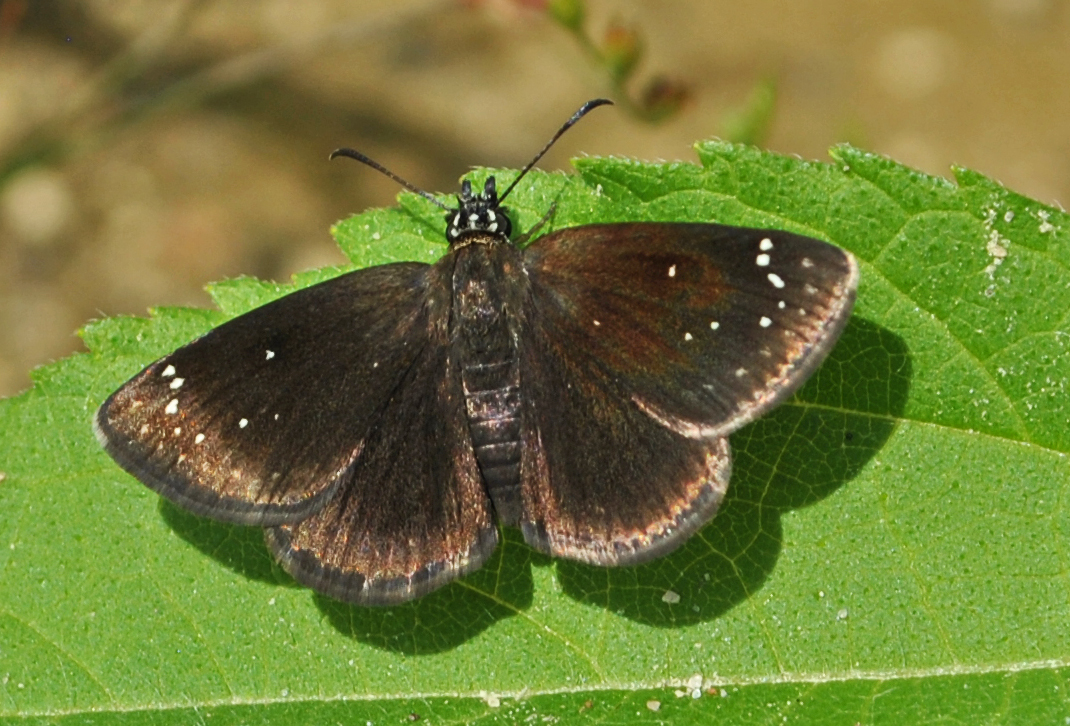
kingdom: Animalia
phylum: Arthropoda
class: Insecta
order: Lepidoptera
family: Hesperiidae
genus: Pholisora
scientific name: Pholisora catullus
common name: Common sootywing
